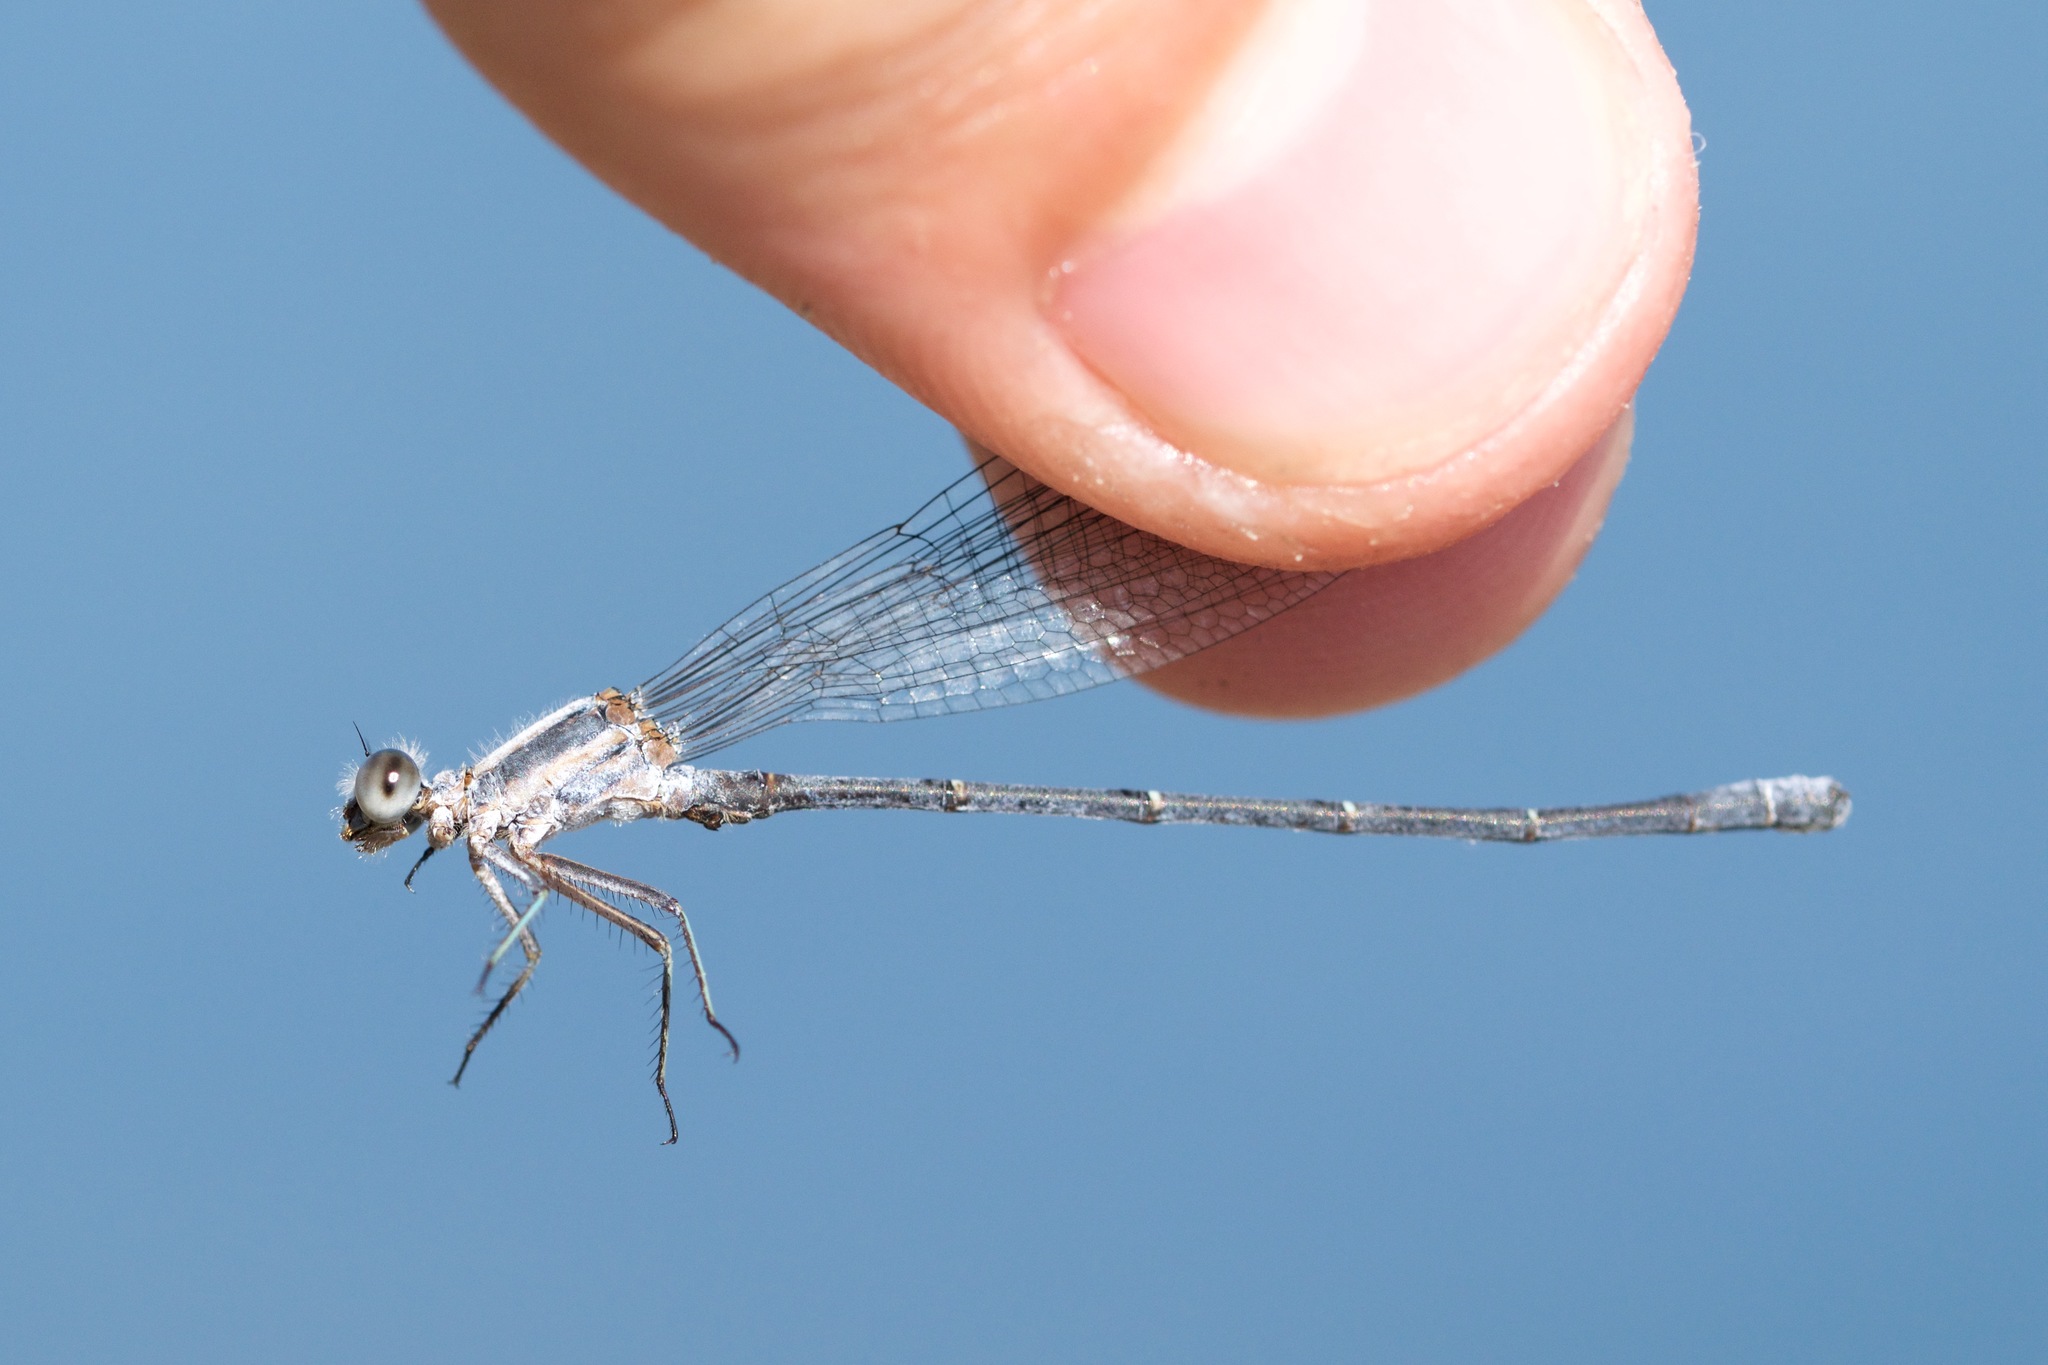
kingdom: Animalia
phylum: Arthropoda
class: Insecta
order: Odonata
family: Coenagrionidae
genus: Argia
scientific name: Argia moesta
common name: Powdered dancer
